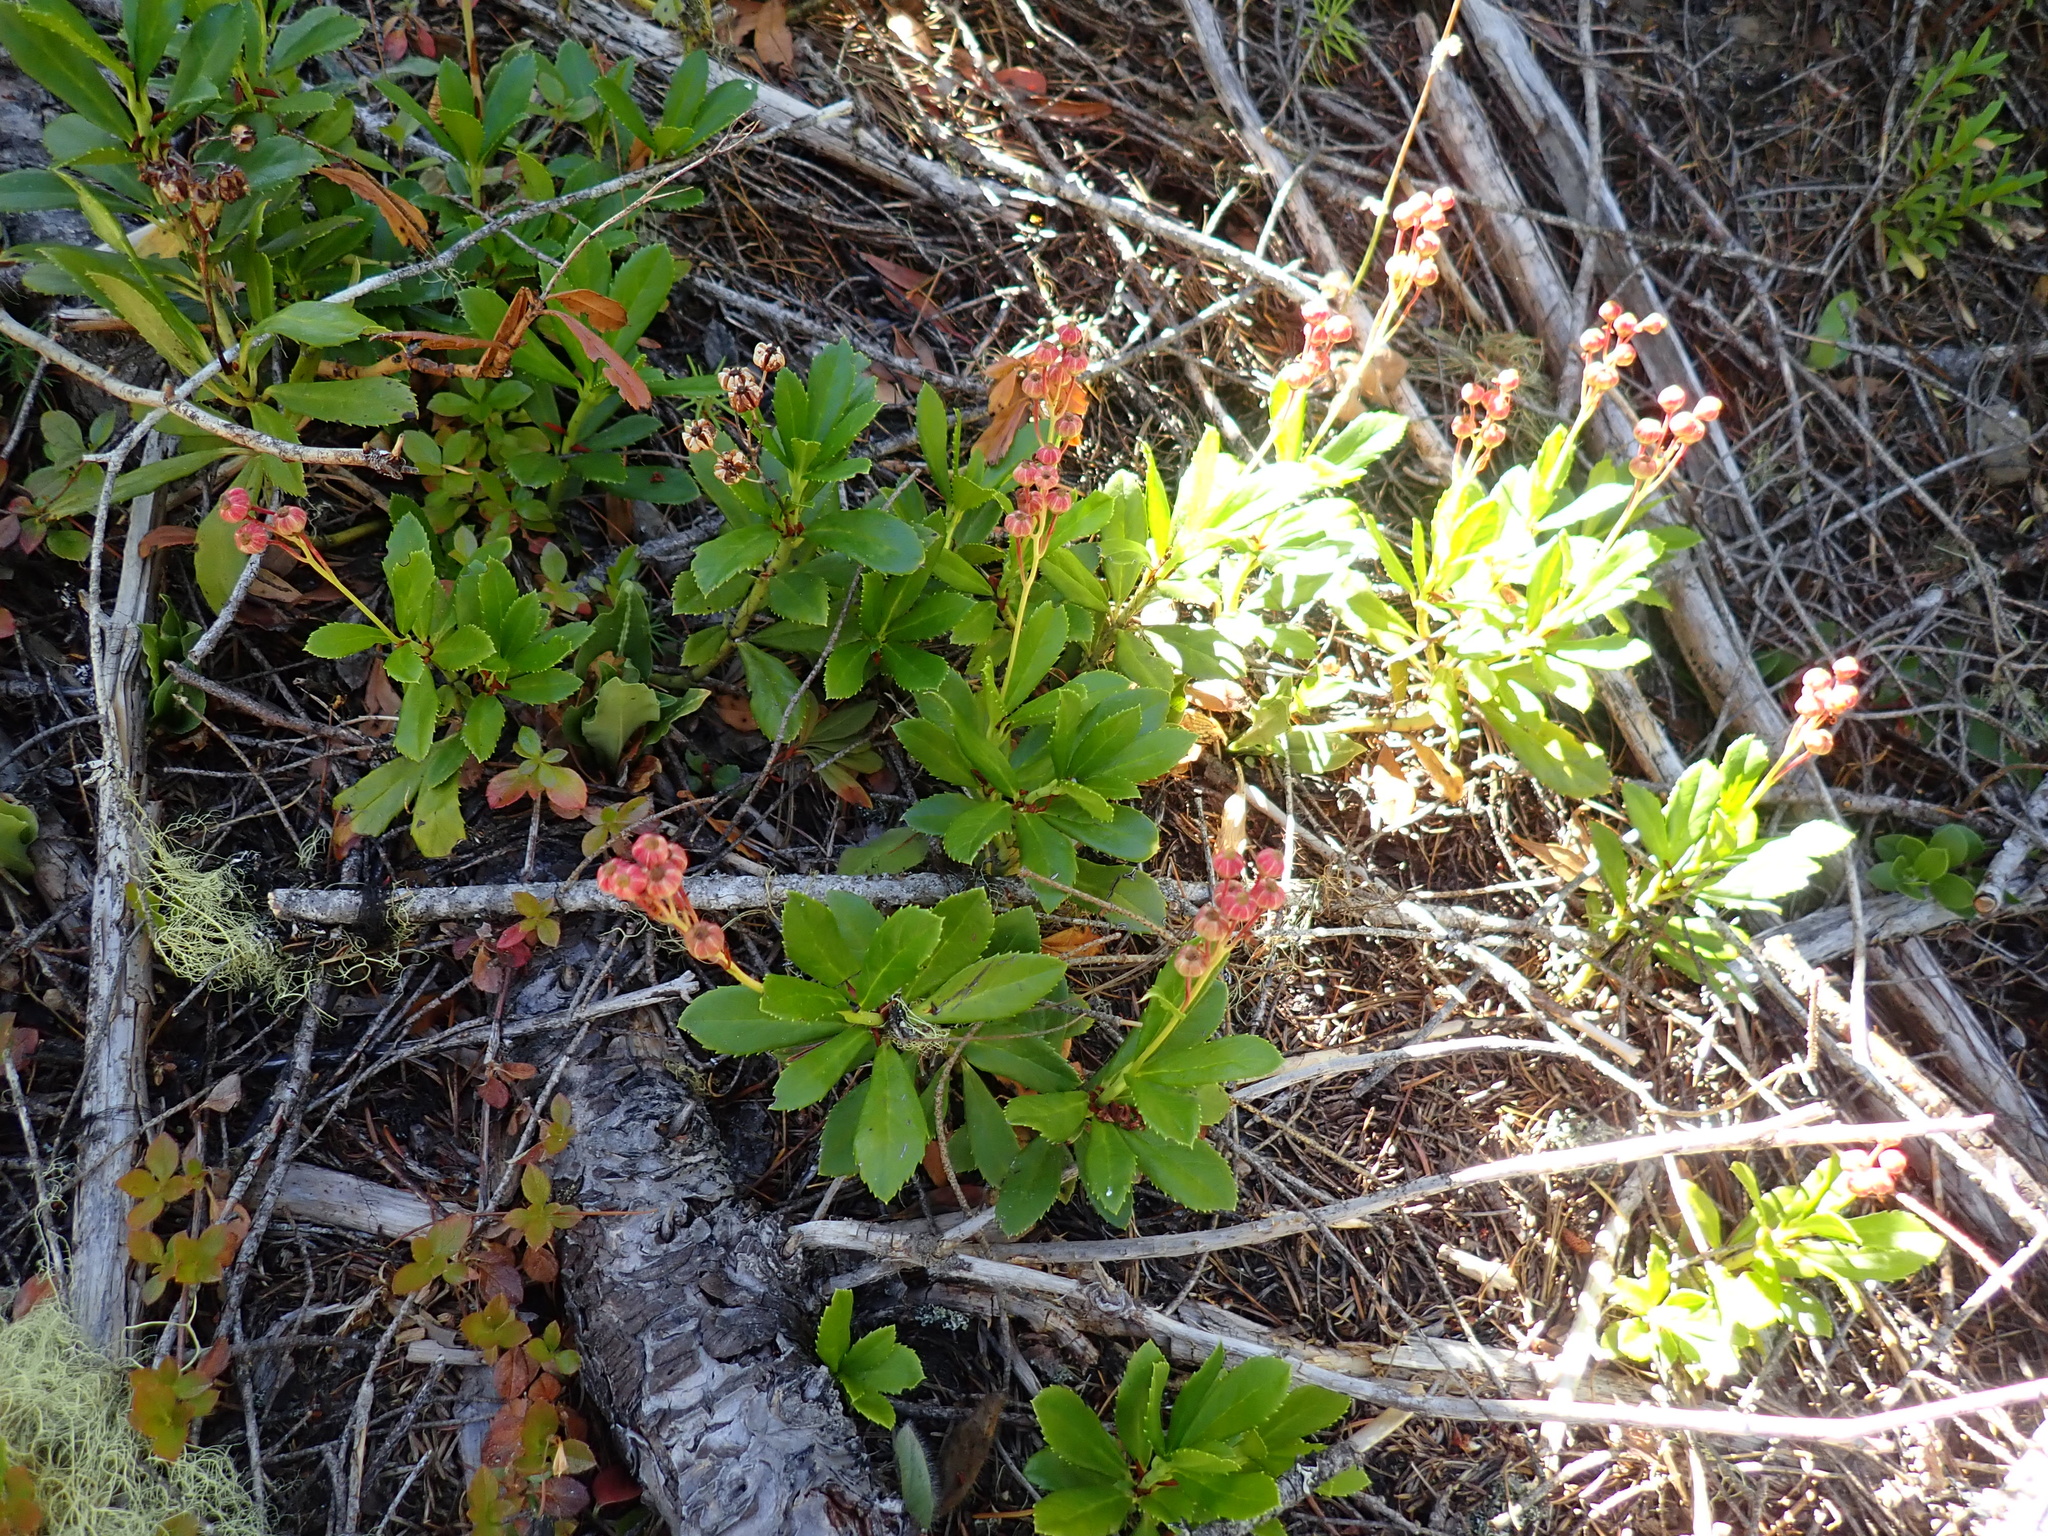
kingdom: Plantae
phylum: Tracheophyta
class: Magnoliopsida
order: Ericales
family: Ericaceae
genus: Chimaphila
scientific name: Chimaphila umbellata
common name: Pipsissewa
